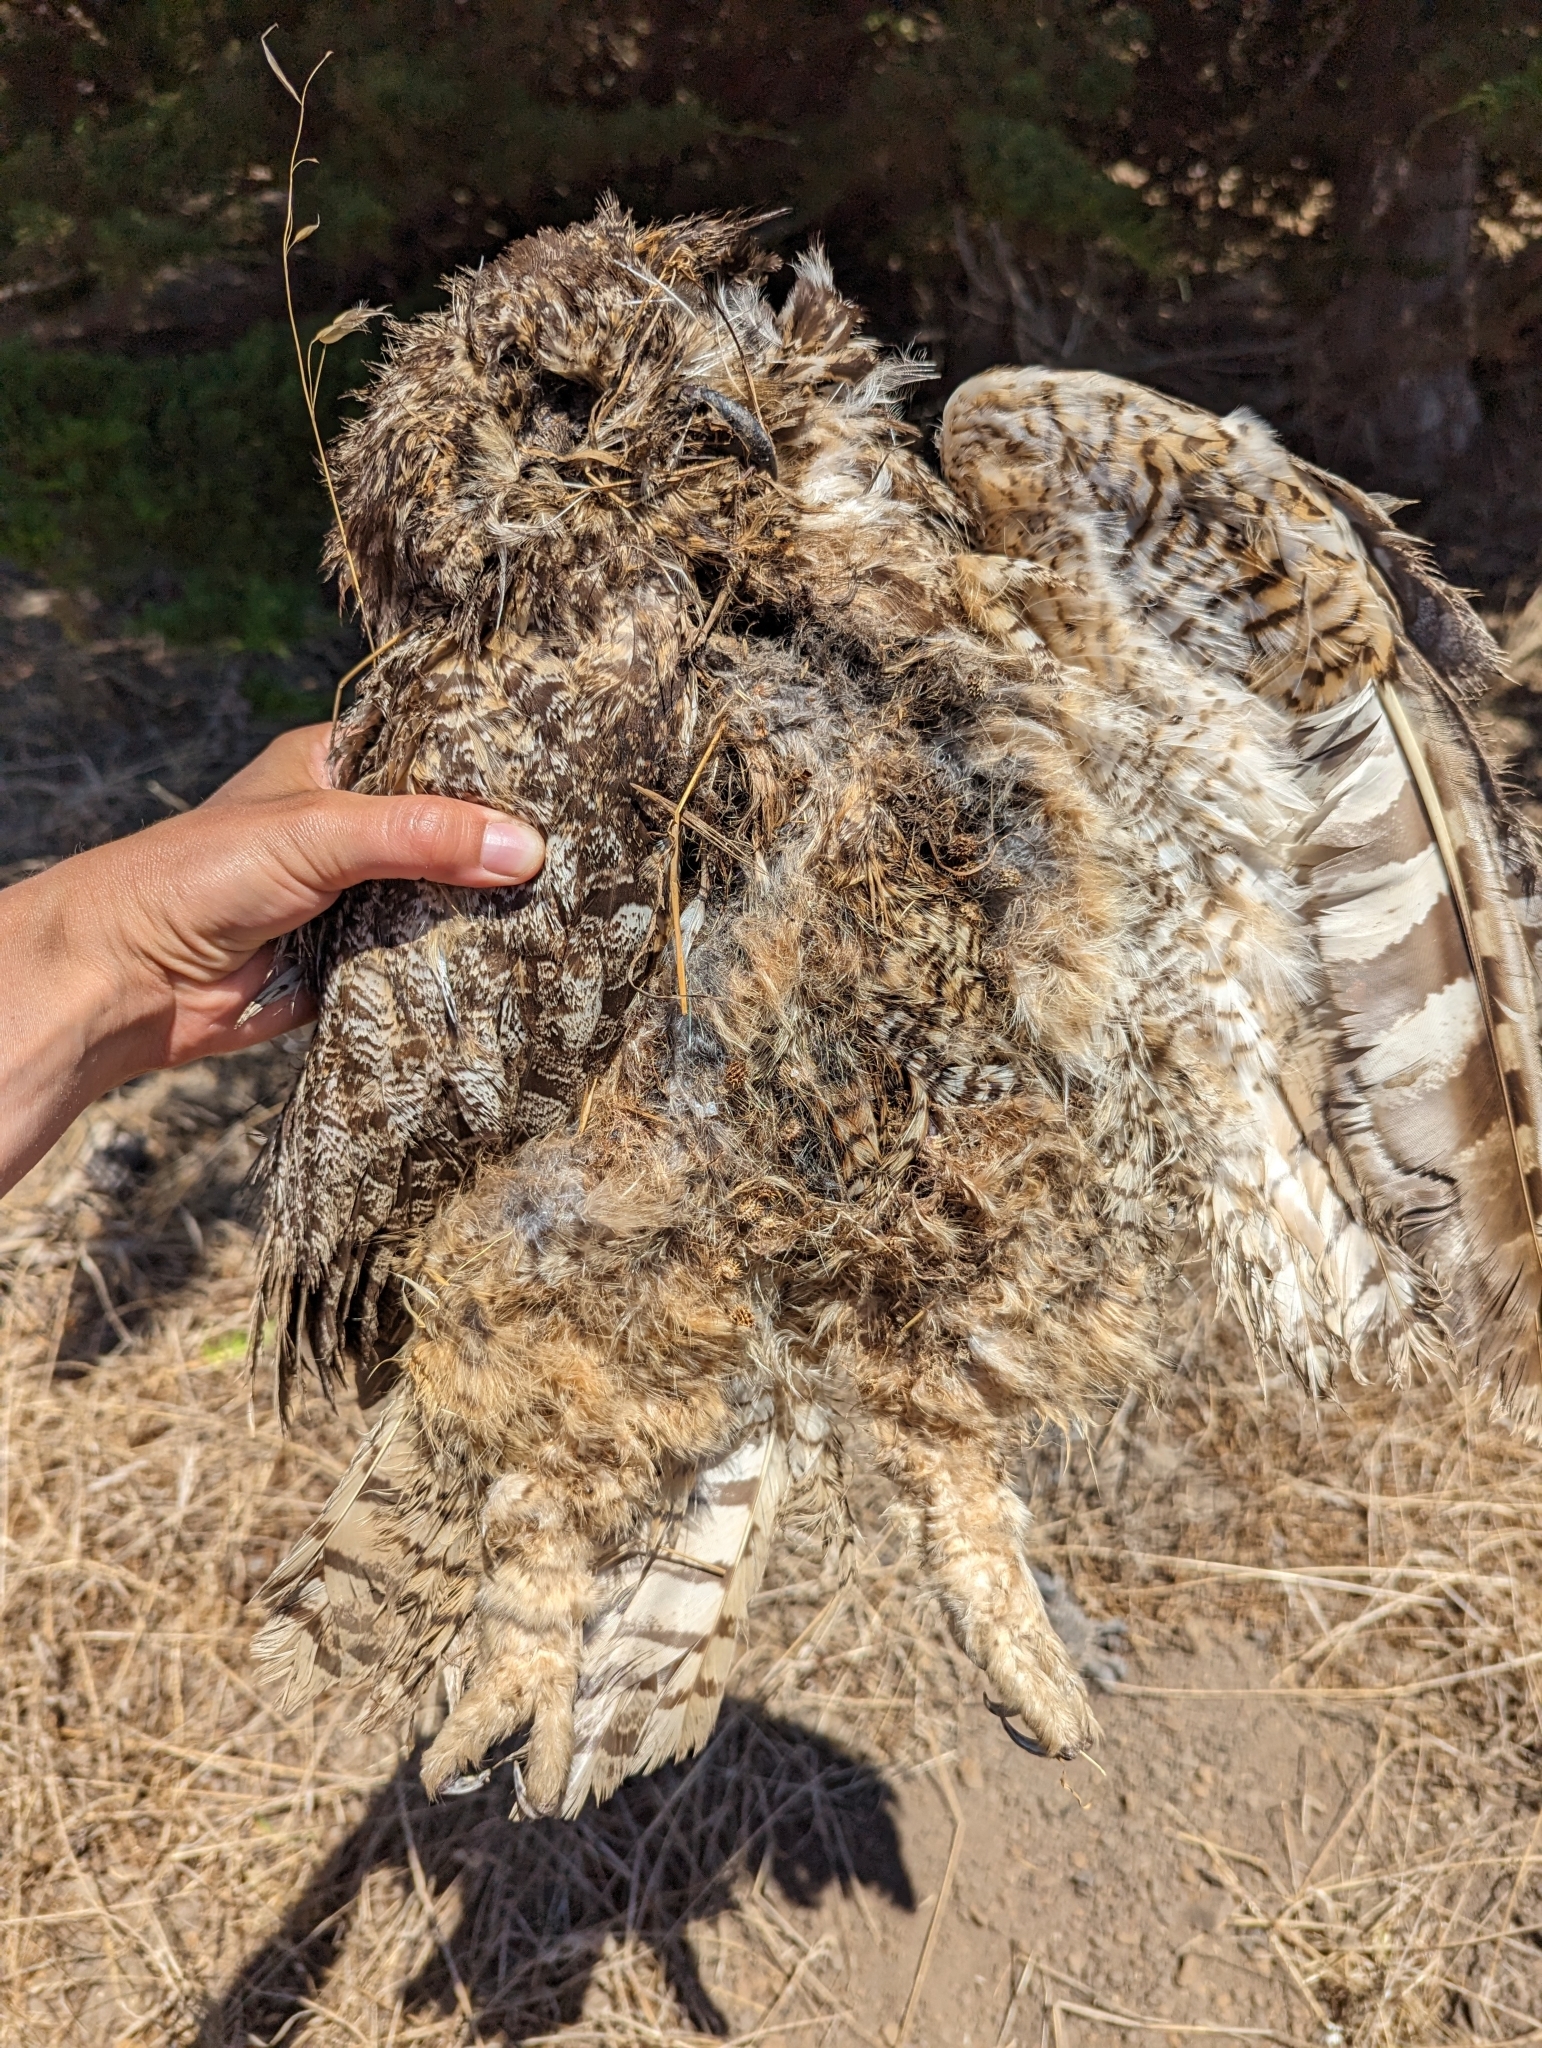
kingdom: Animalia
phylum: Chordata
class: Aves
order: Strigiformes
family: Strigidae
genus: Bubo
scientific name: Bubo virginianus
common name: Great horned owl
